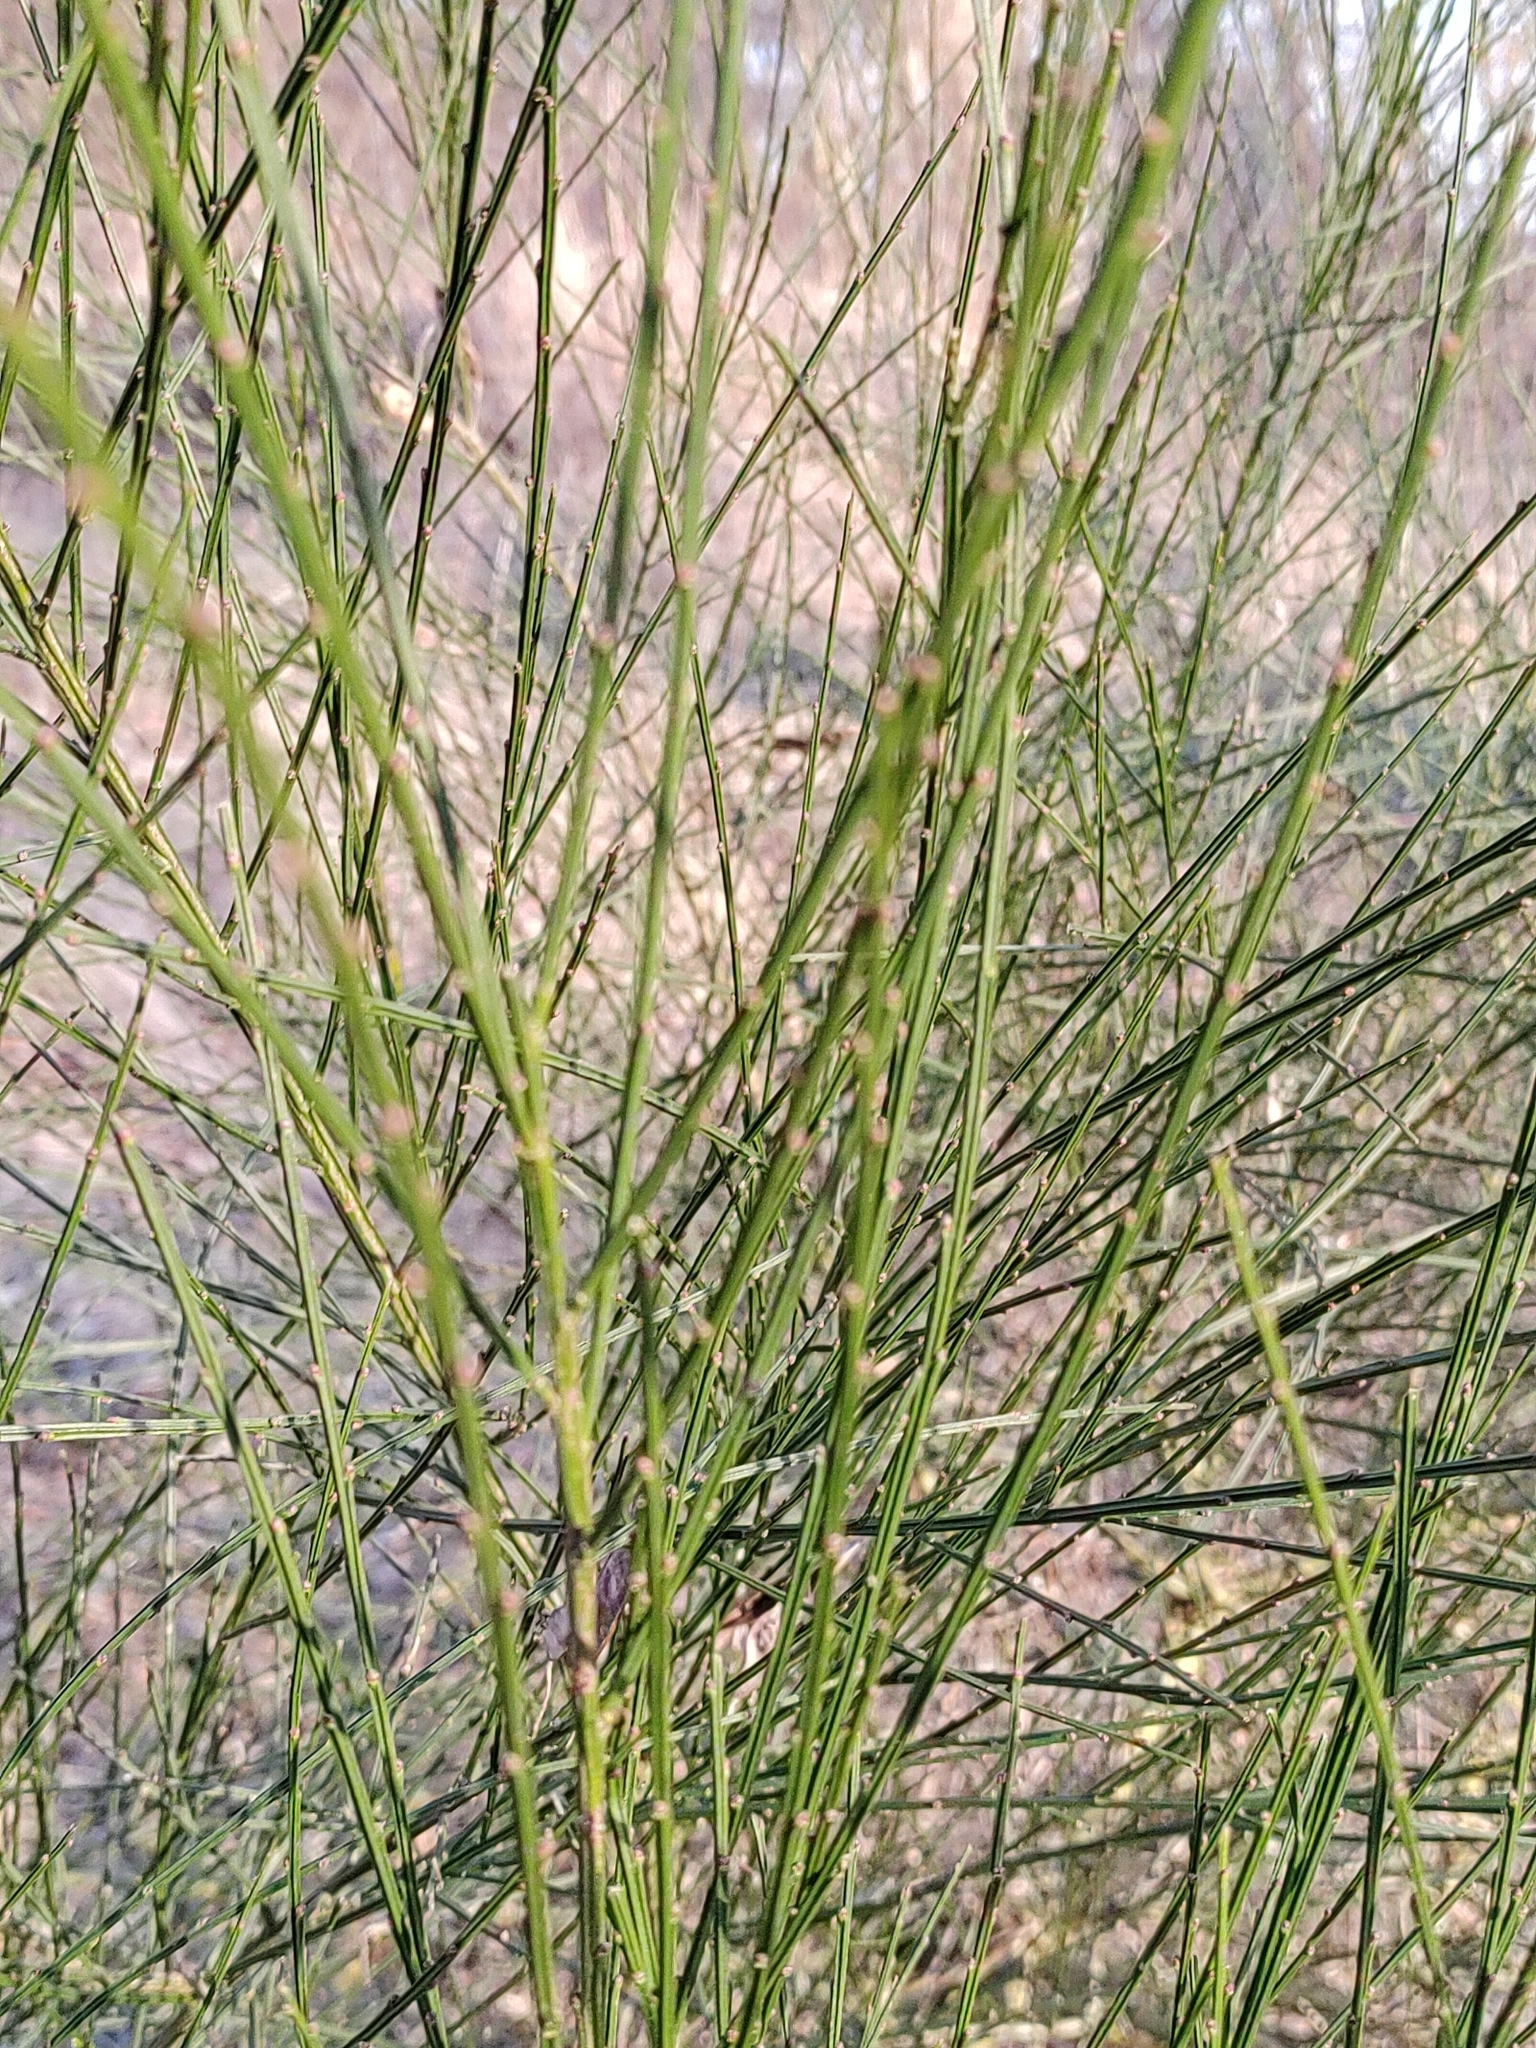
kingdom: Plantae
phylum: Tracheophyta
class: Magnoliopsida
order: Fabales
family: Fabaceae
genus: Cytisus
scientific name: Cytisus scoparius
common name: Scotch broom
